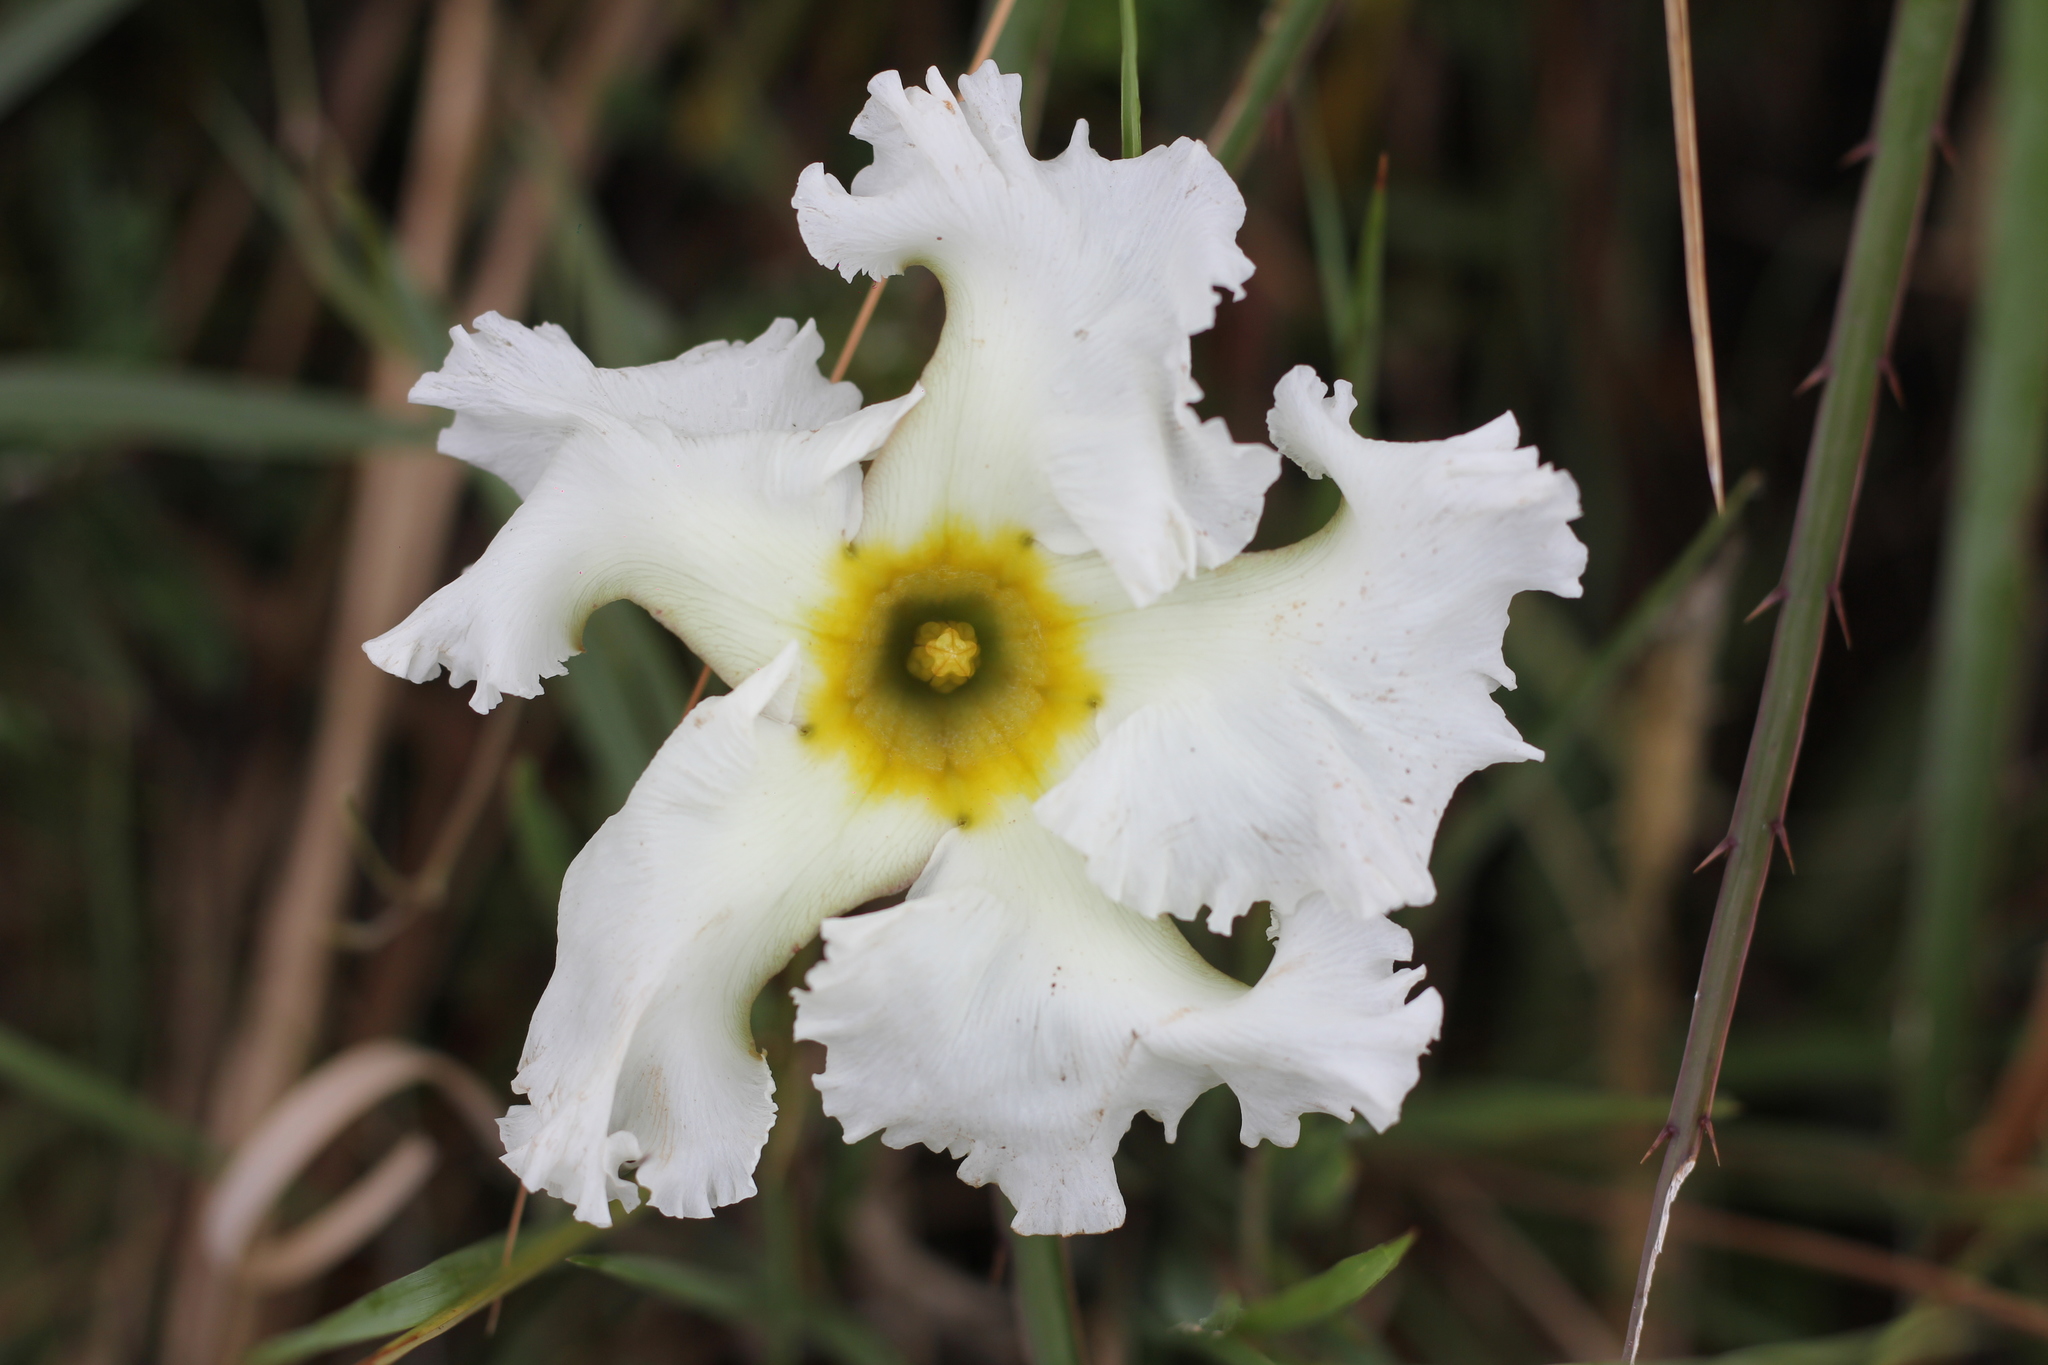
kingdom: Plantae
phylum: Tracheophyta
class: Magnoliopsida
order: Gentianales
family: Apocynaceae
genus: Mandevilla
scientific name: Mandevilla petraea
